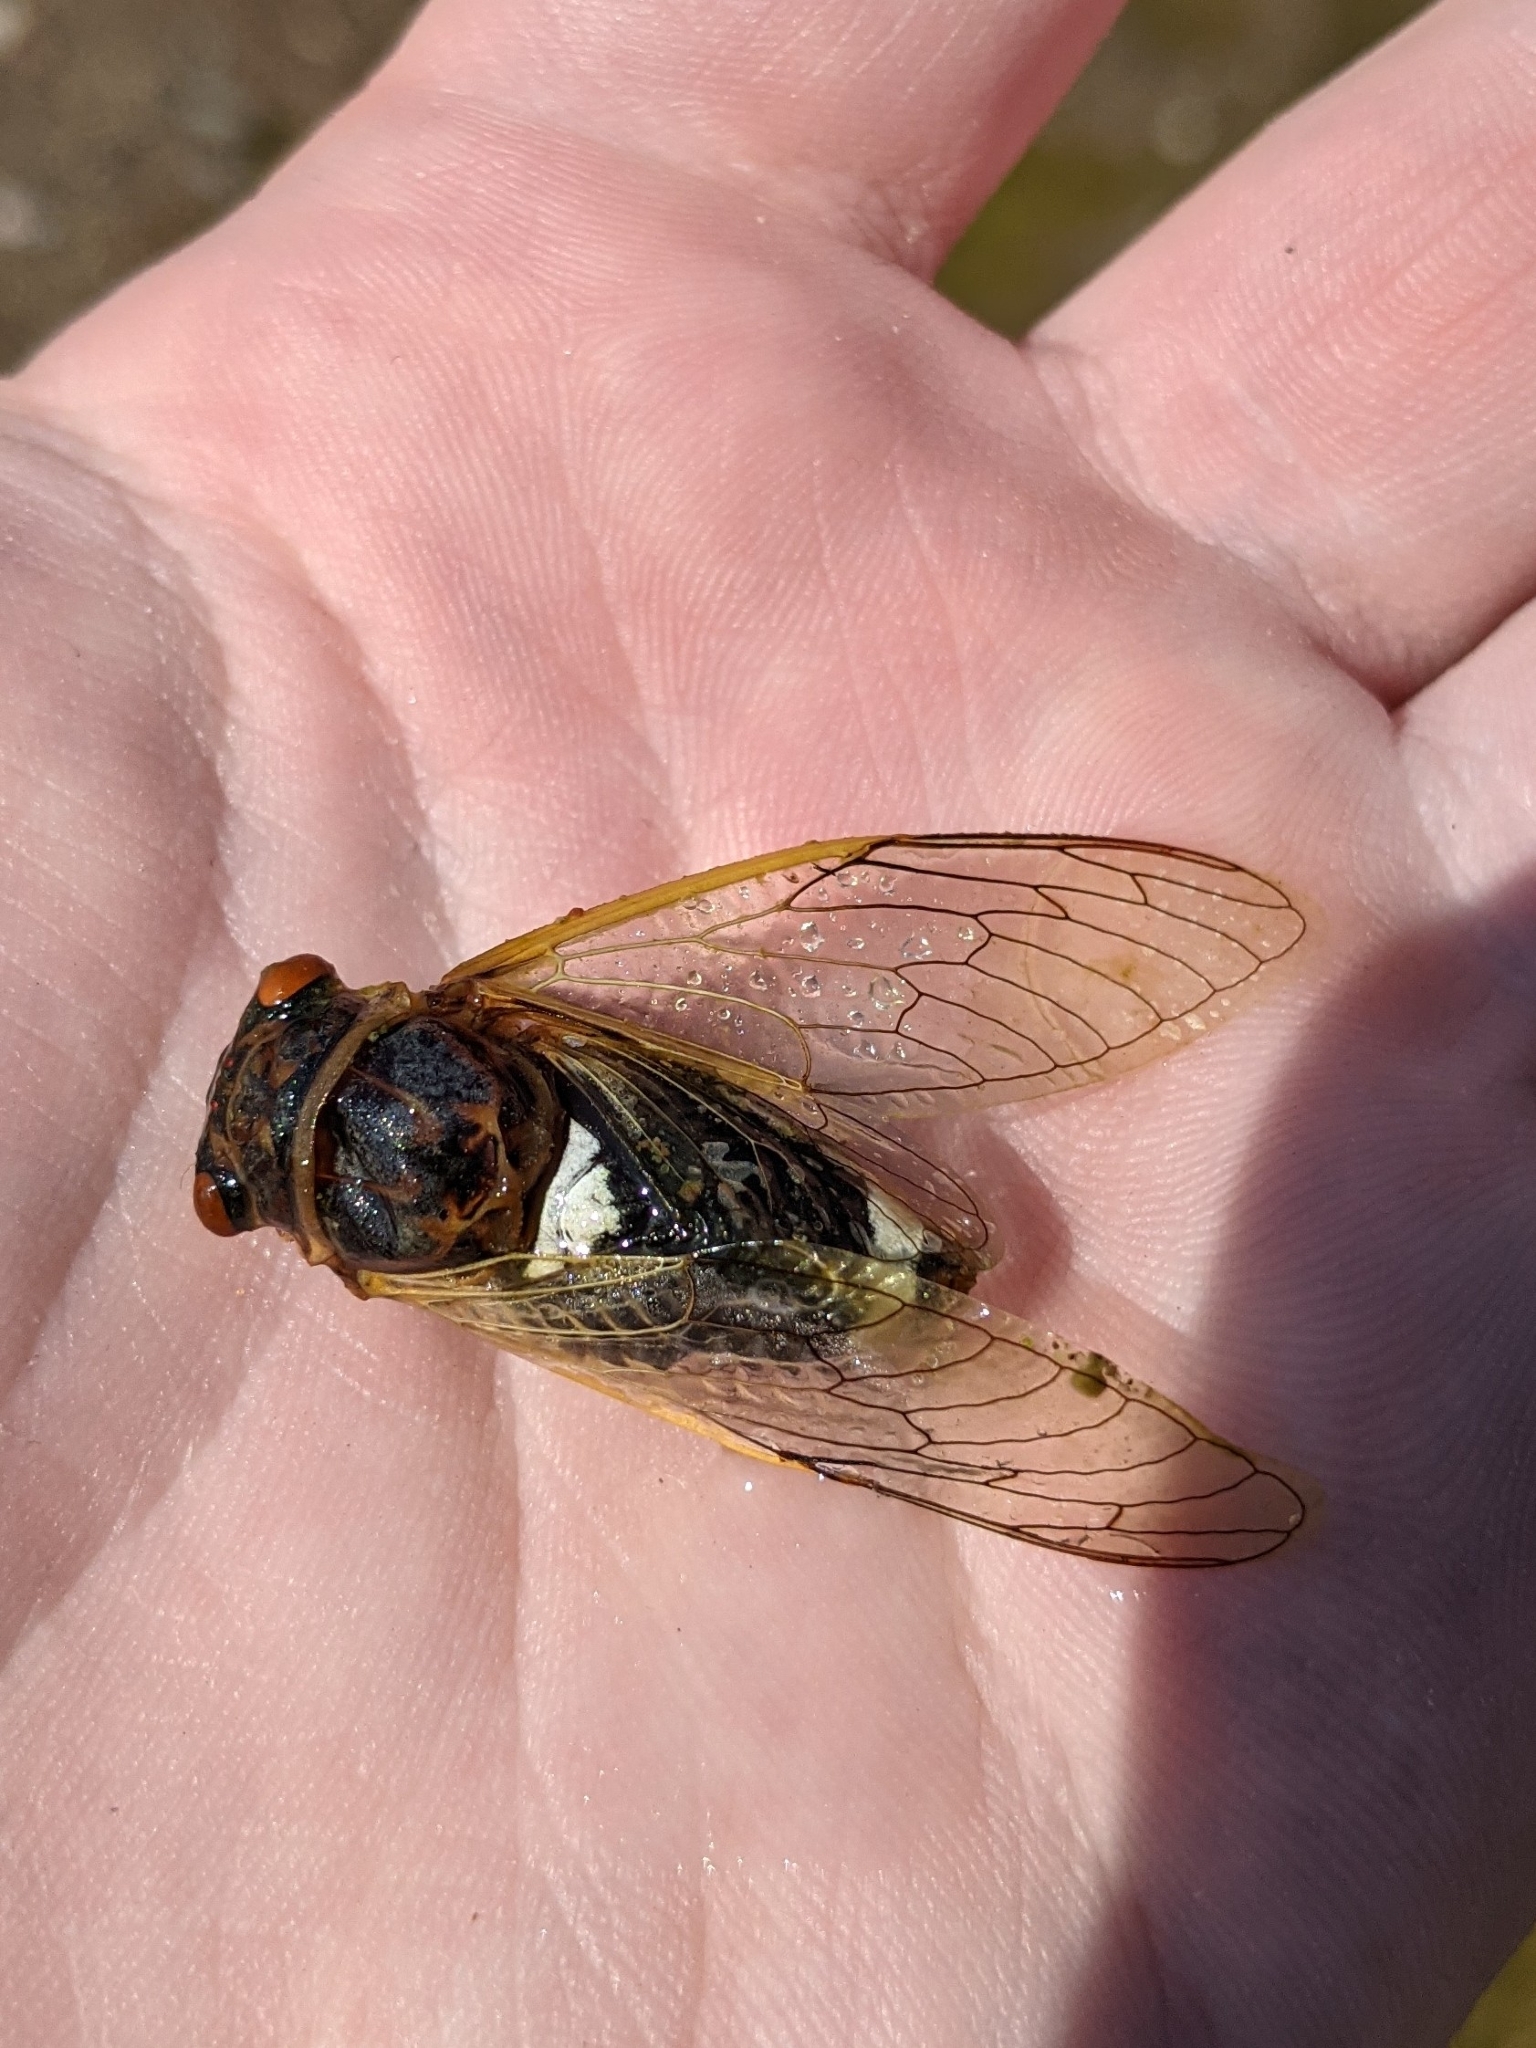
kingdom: Animalia
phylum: Arthropoda
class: Insecta
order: Hemiptera
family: Cicadidae
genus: Diceroprocta
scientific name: Diceroprocta cinctifera
